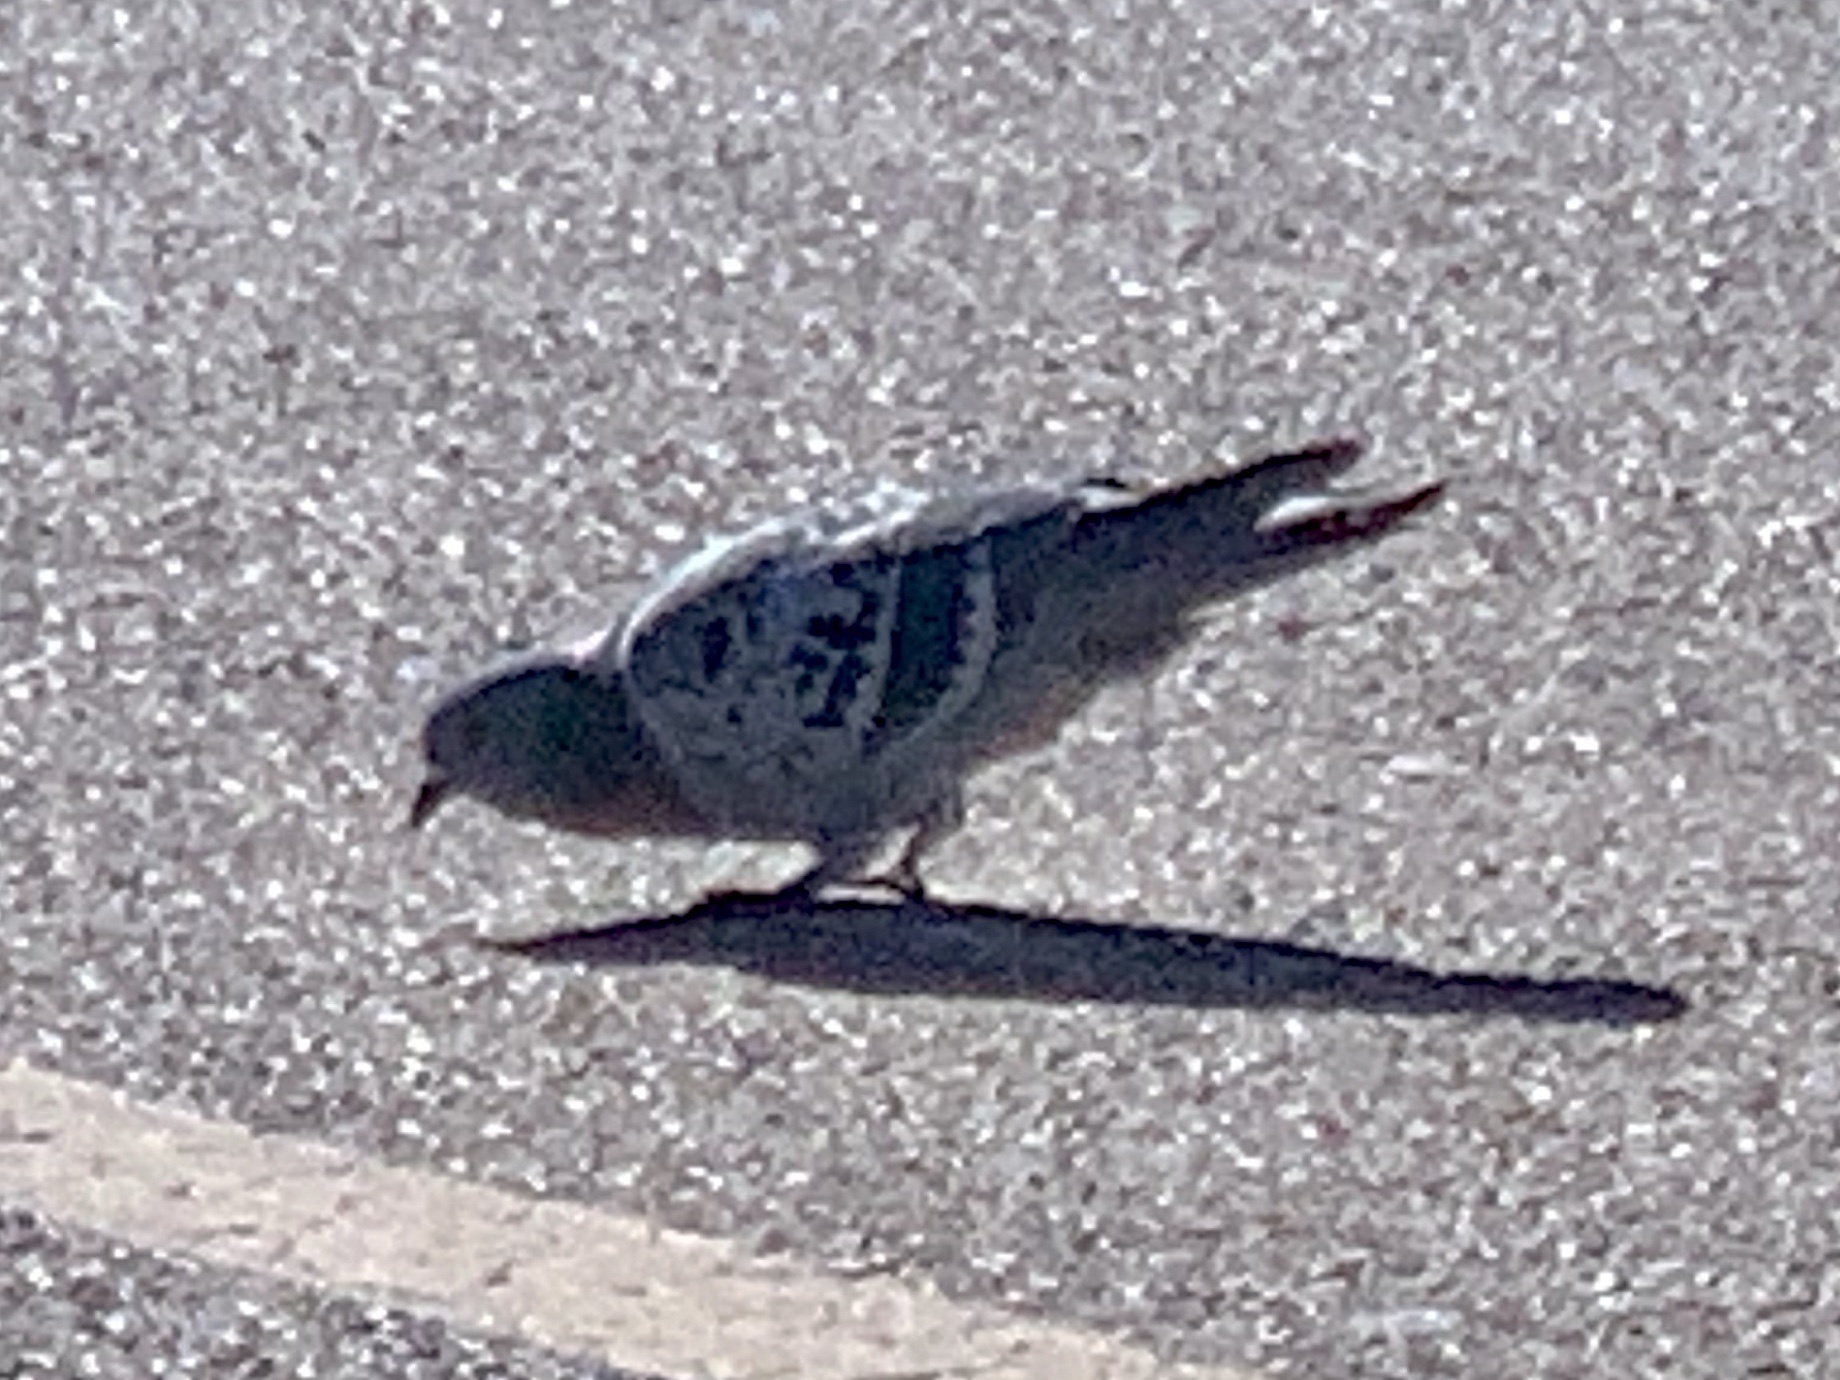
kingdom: Animalia
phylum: Chordata
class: Aves
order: Columbiformes
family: Columbidae
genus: Columba
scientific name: Columba livia
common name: Rock pigeon
